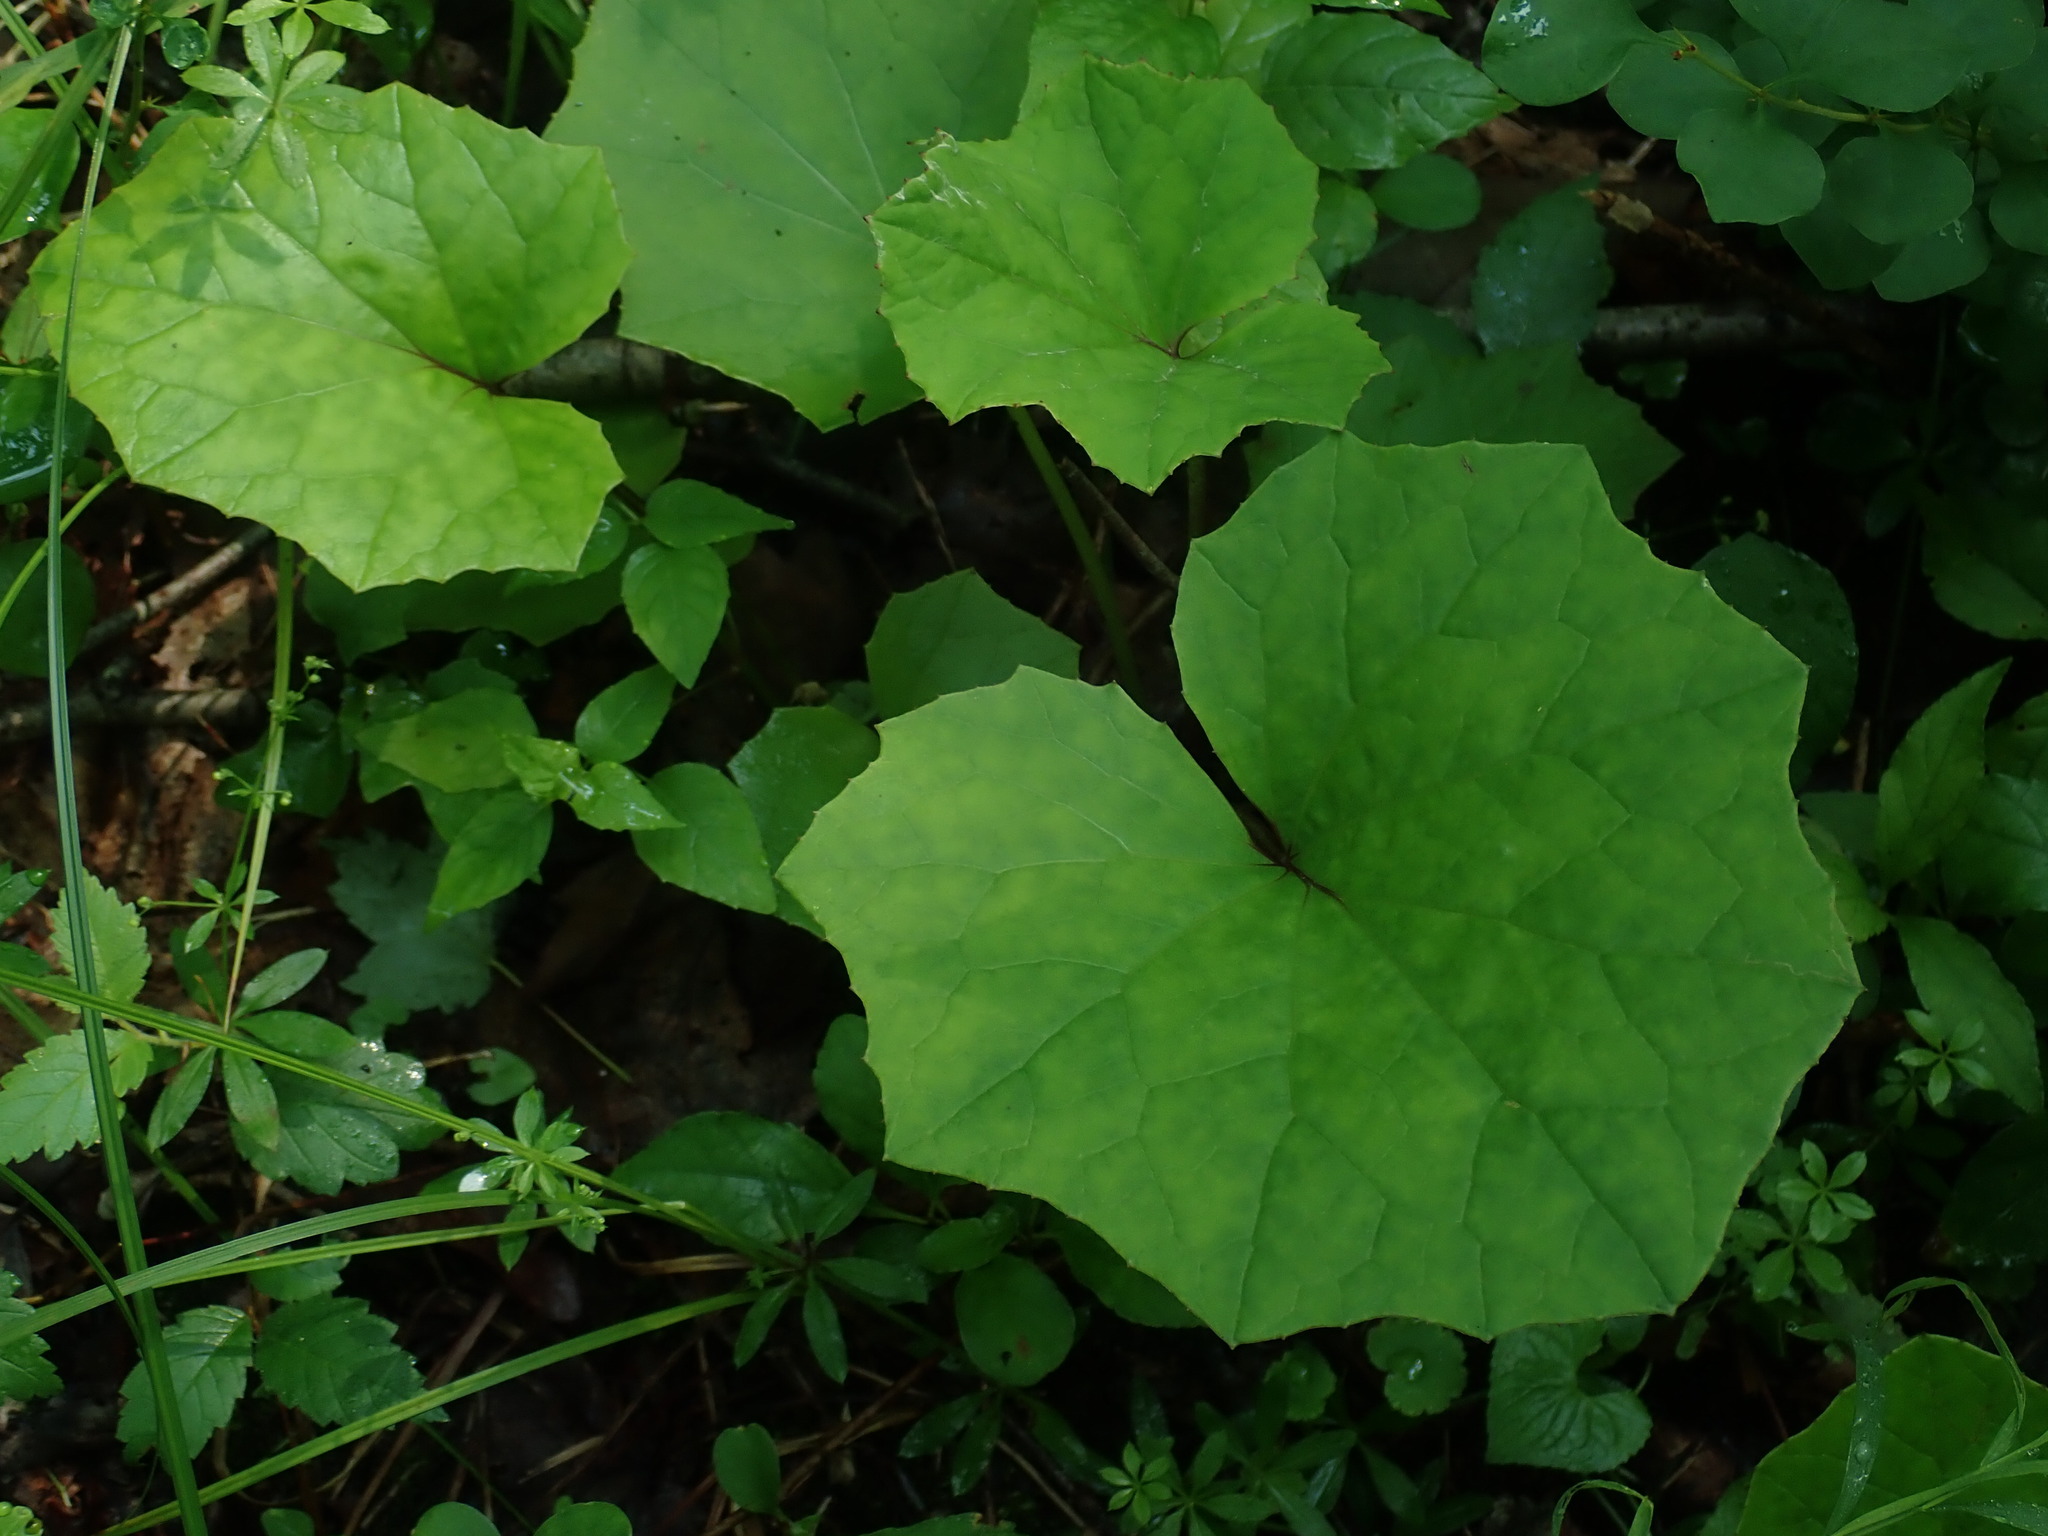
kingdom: Plantae
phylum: Tracheophyta
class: Magnoliopsida
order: Asterales
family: Asteraceae
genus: Tussilago
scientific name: Tussilago farfara
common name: Coltsfoot
